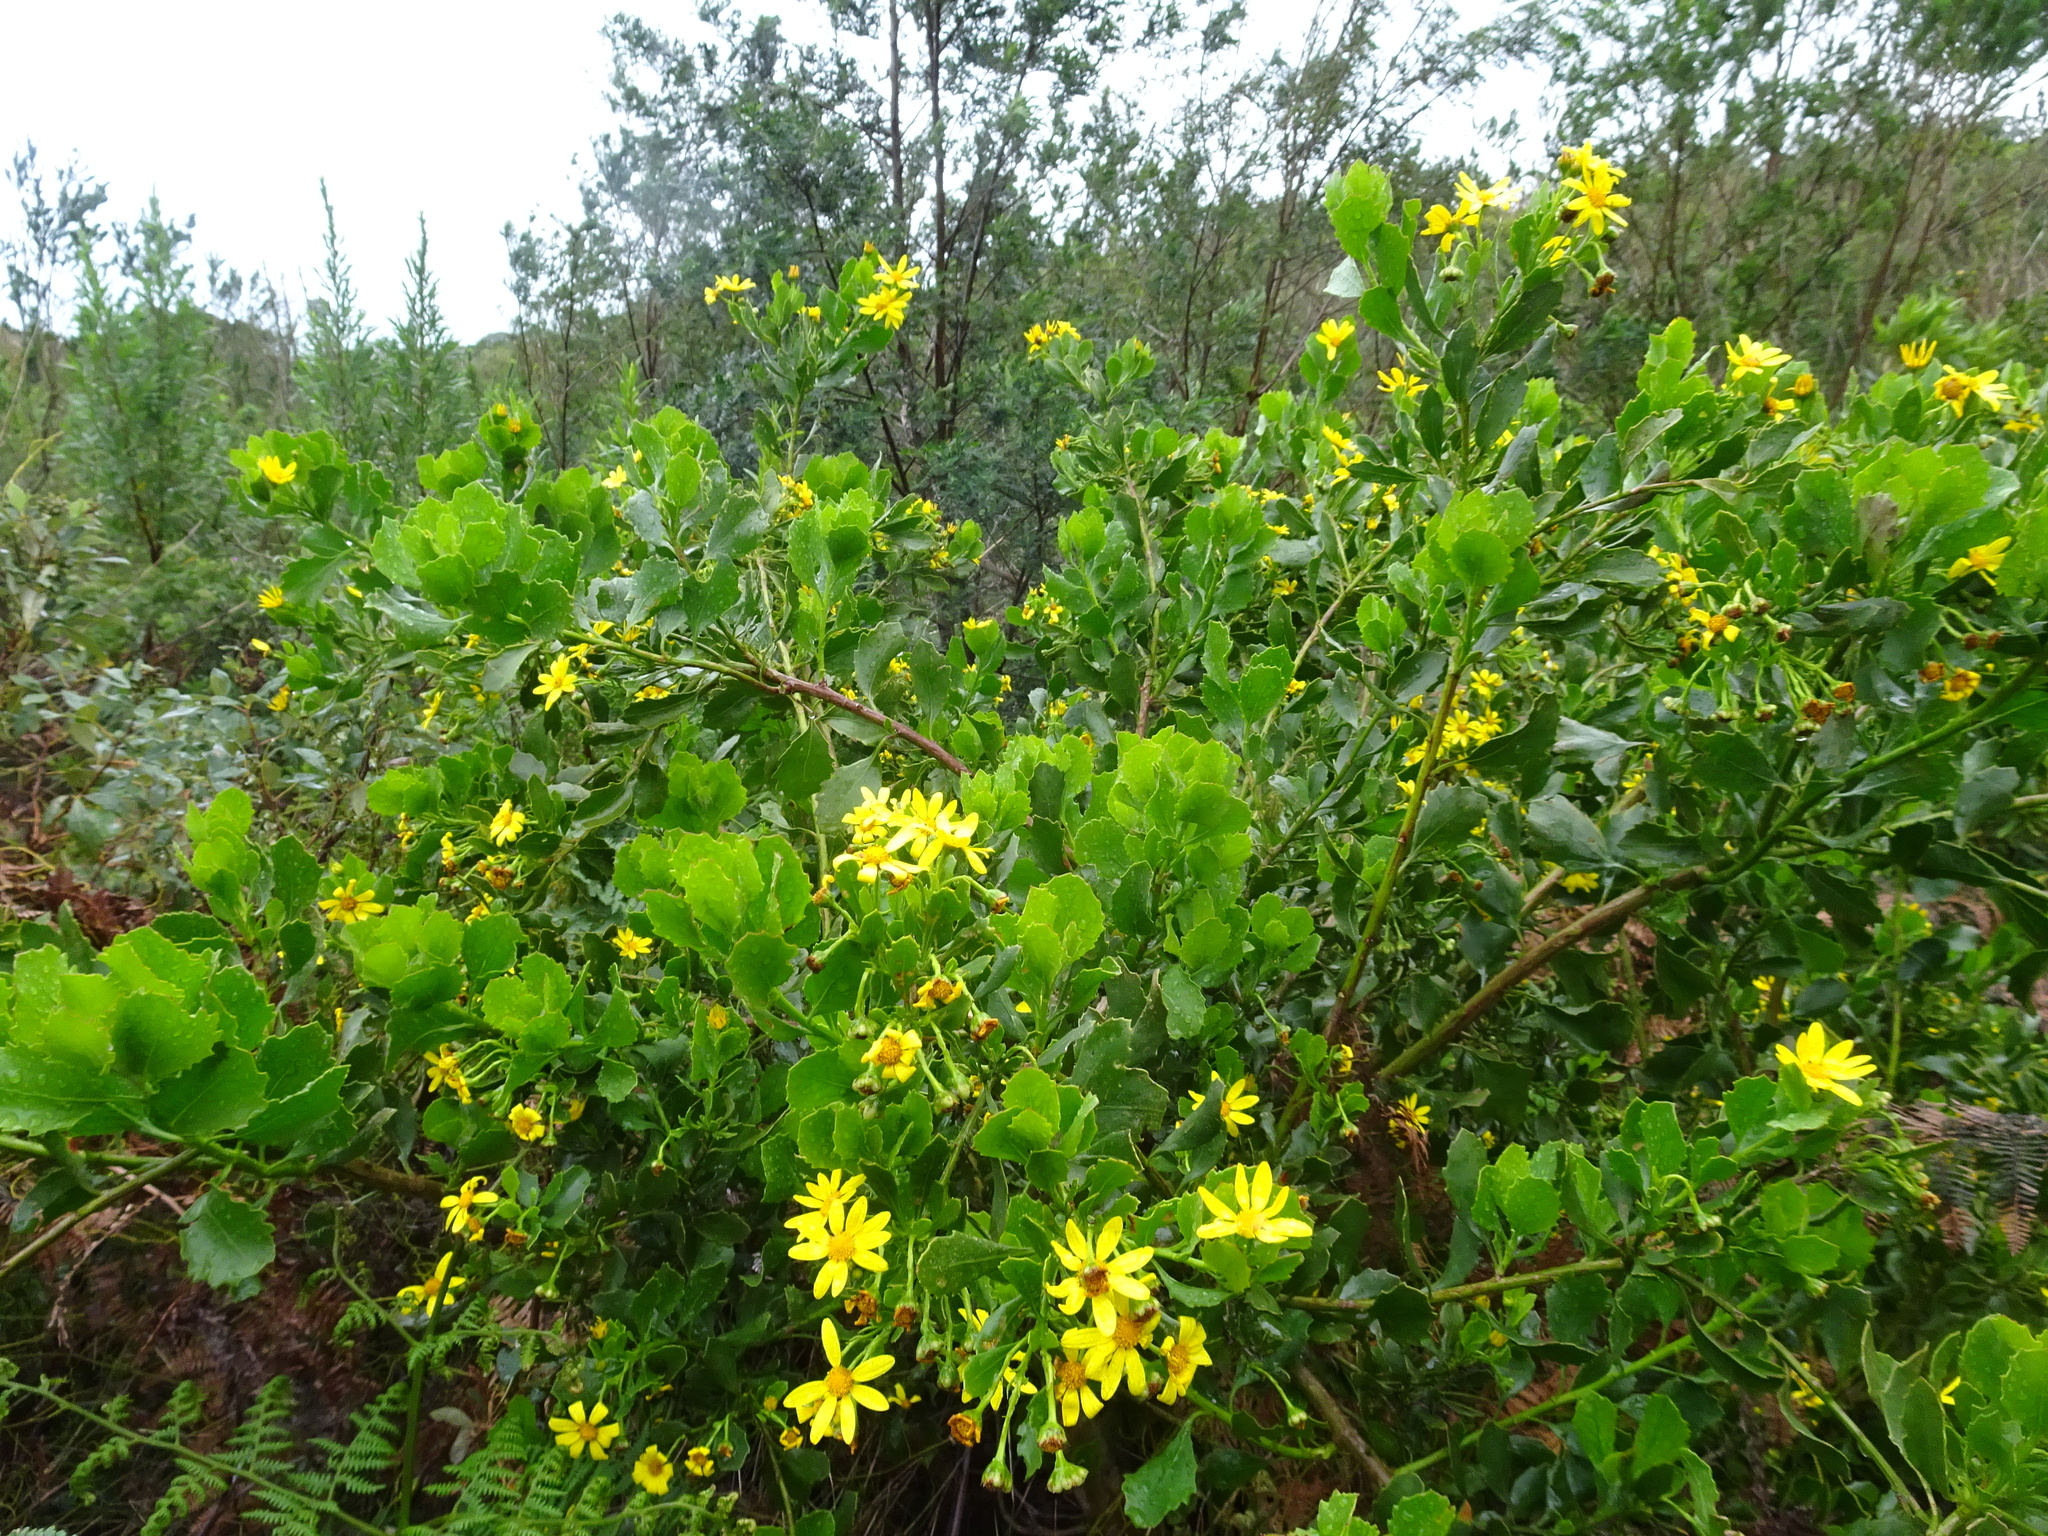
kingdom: Plantae
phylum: Tracheophyta
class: Magnoliopsida
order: Asterales
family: Asteraceae
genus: Osteospermum
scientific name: Osteospermum moniliferum
